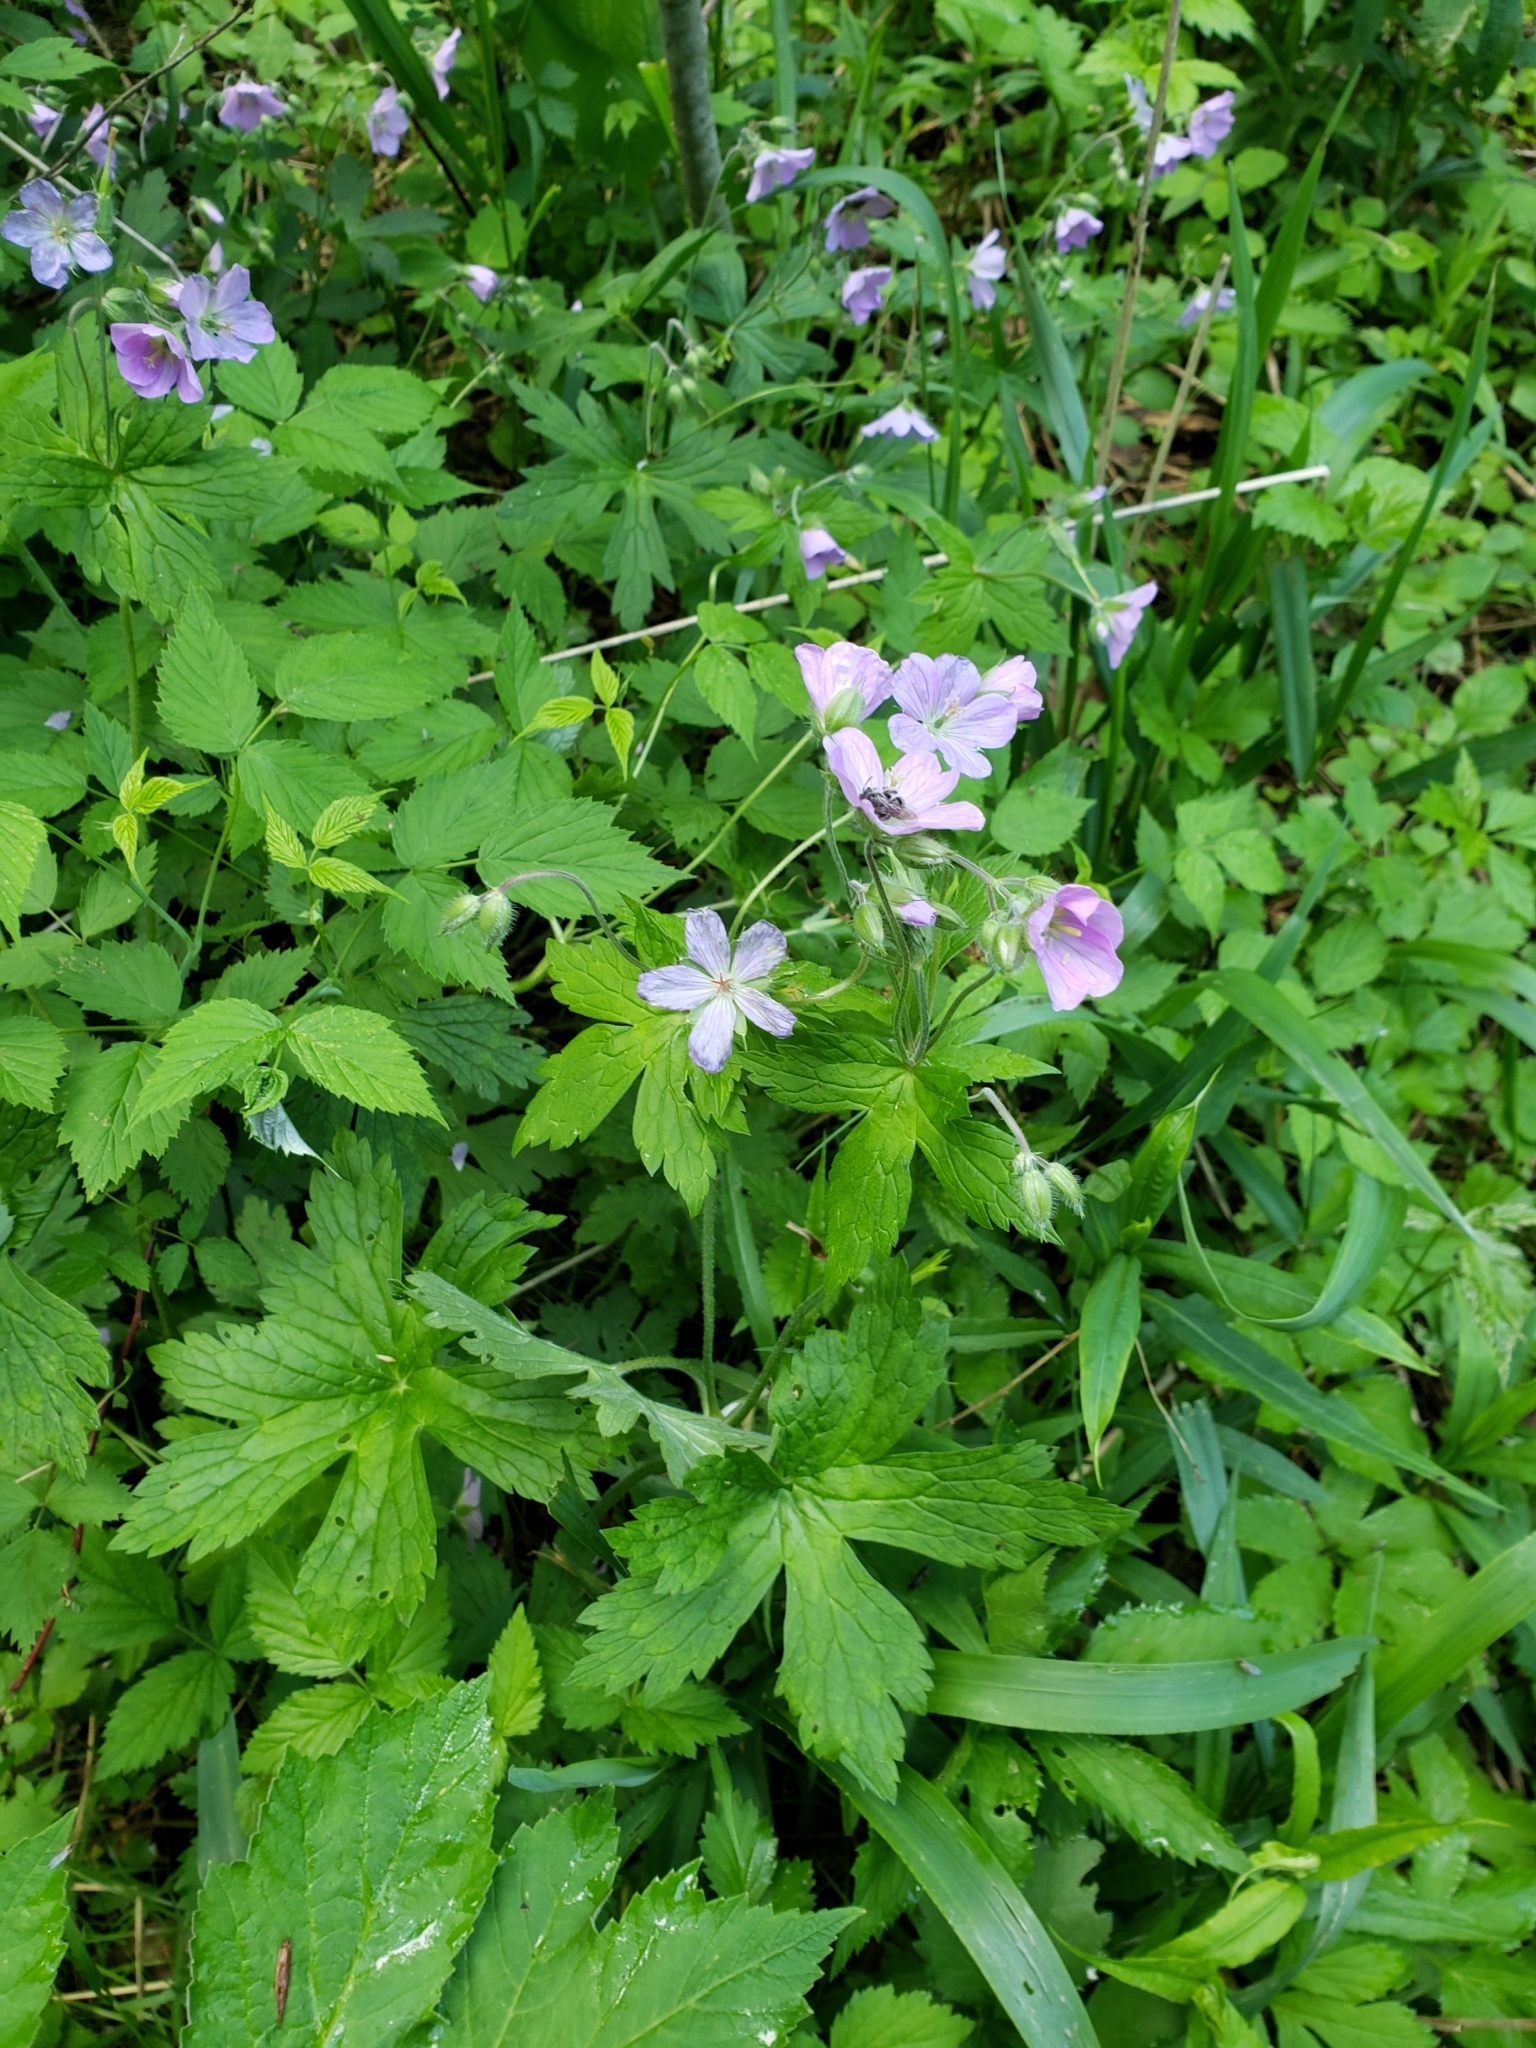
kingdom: Plantae
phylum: Tracheophyta
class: Magnoliopsida
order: Geraniales
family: Geraniaceae
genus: Geranium
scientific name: Geranium maculatum
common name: Spotted geranium
